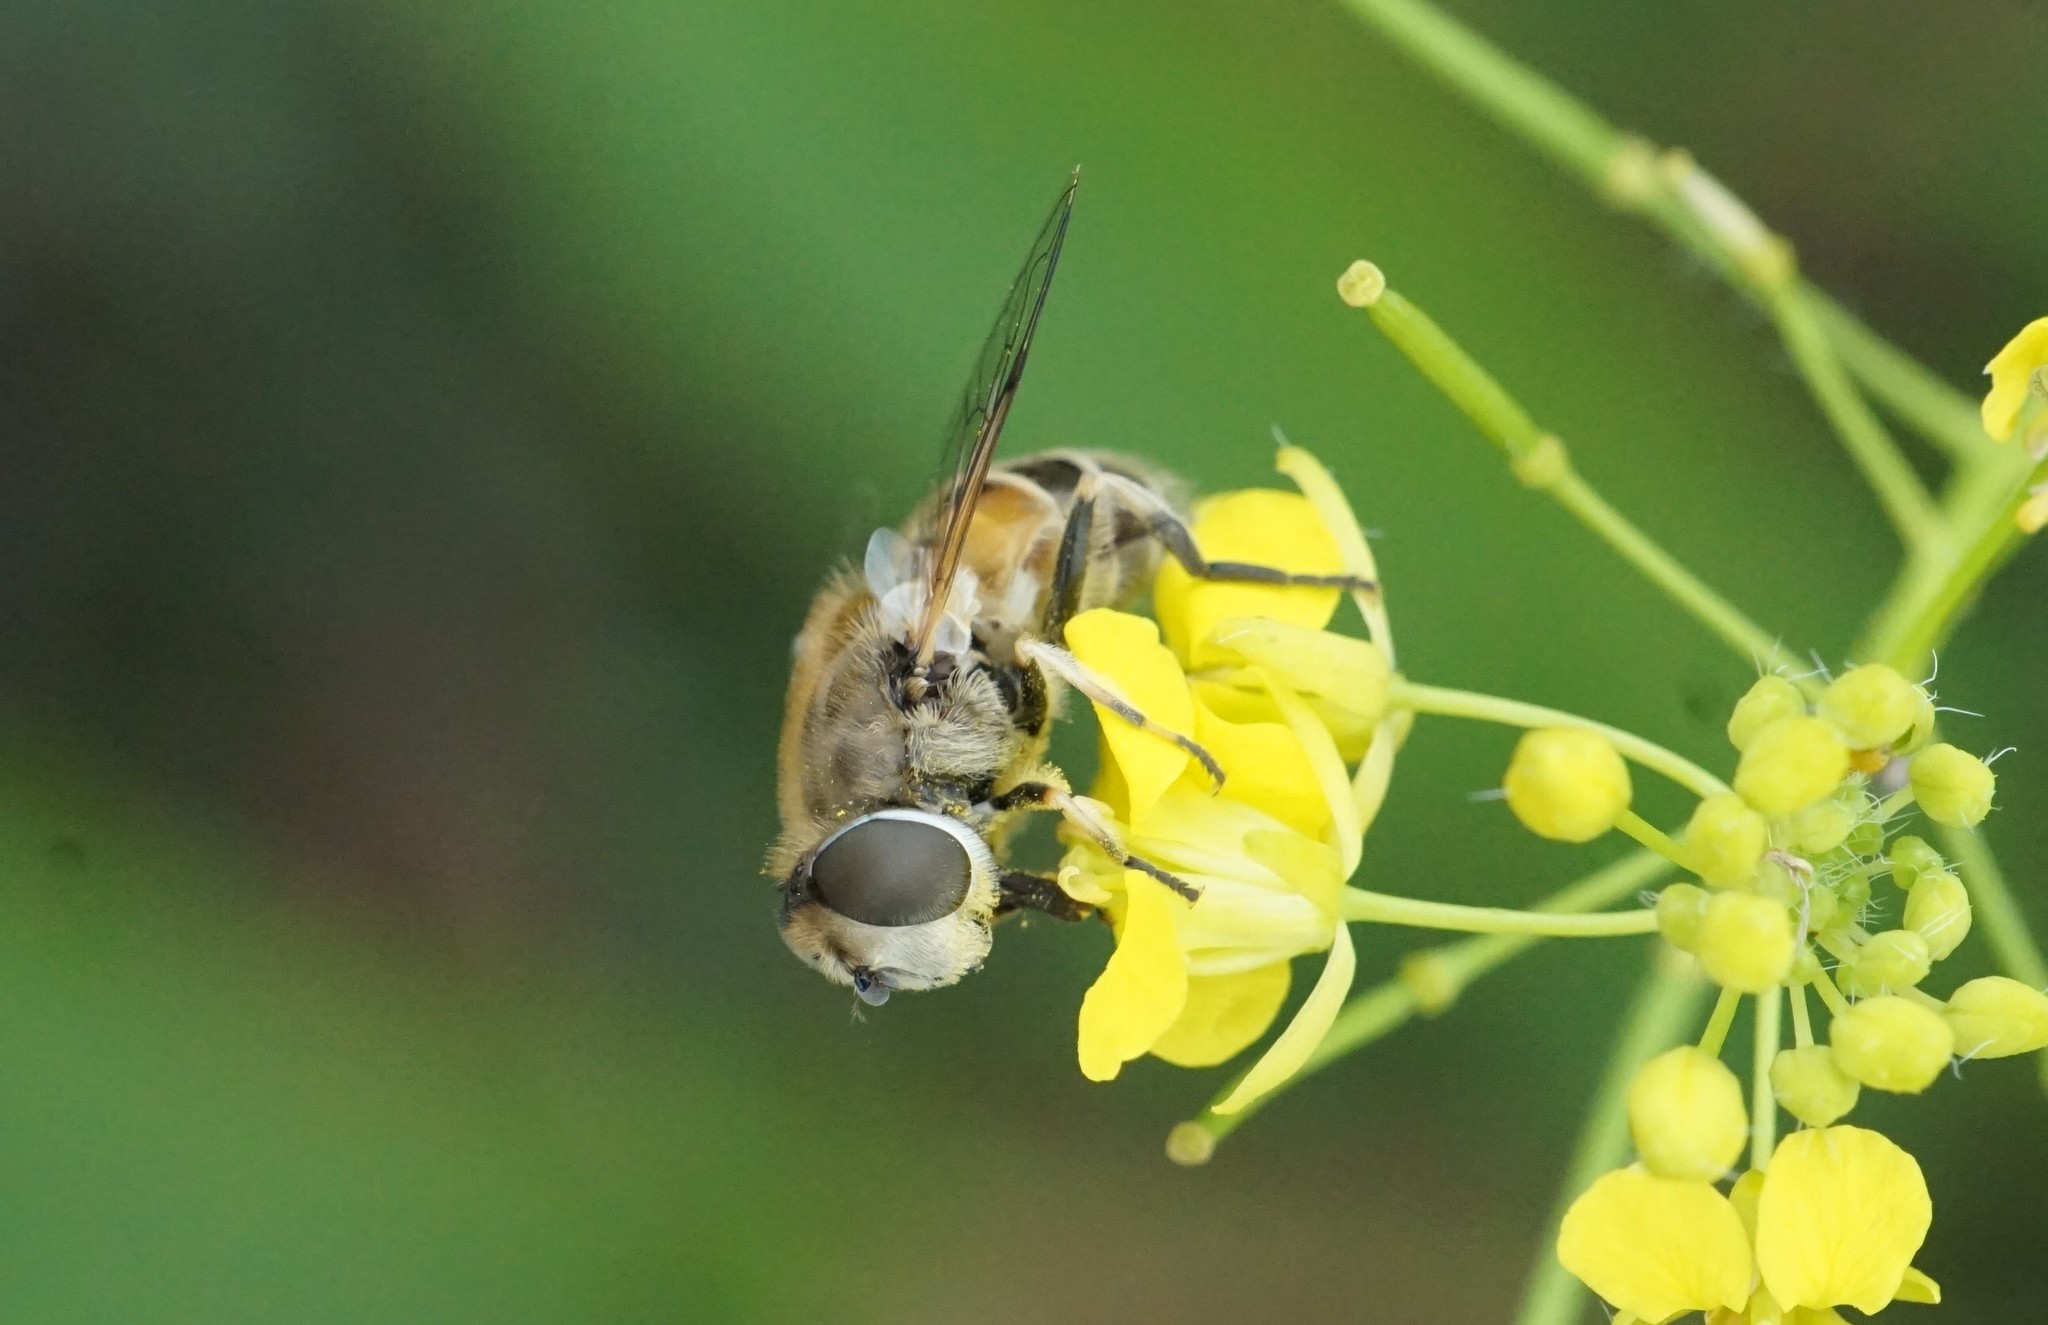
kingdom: Animalia
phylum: Arthropoda
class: Insecta
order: Diptera
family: Syrphidae
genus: Eristalis
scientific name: Eristalis arbustorum
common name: Hover fly
